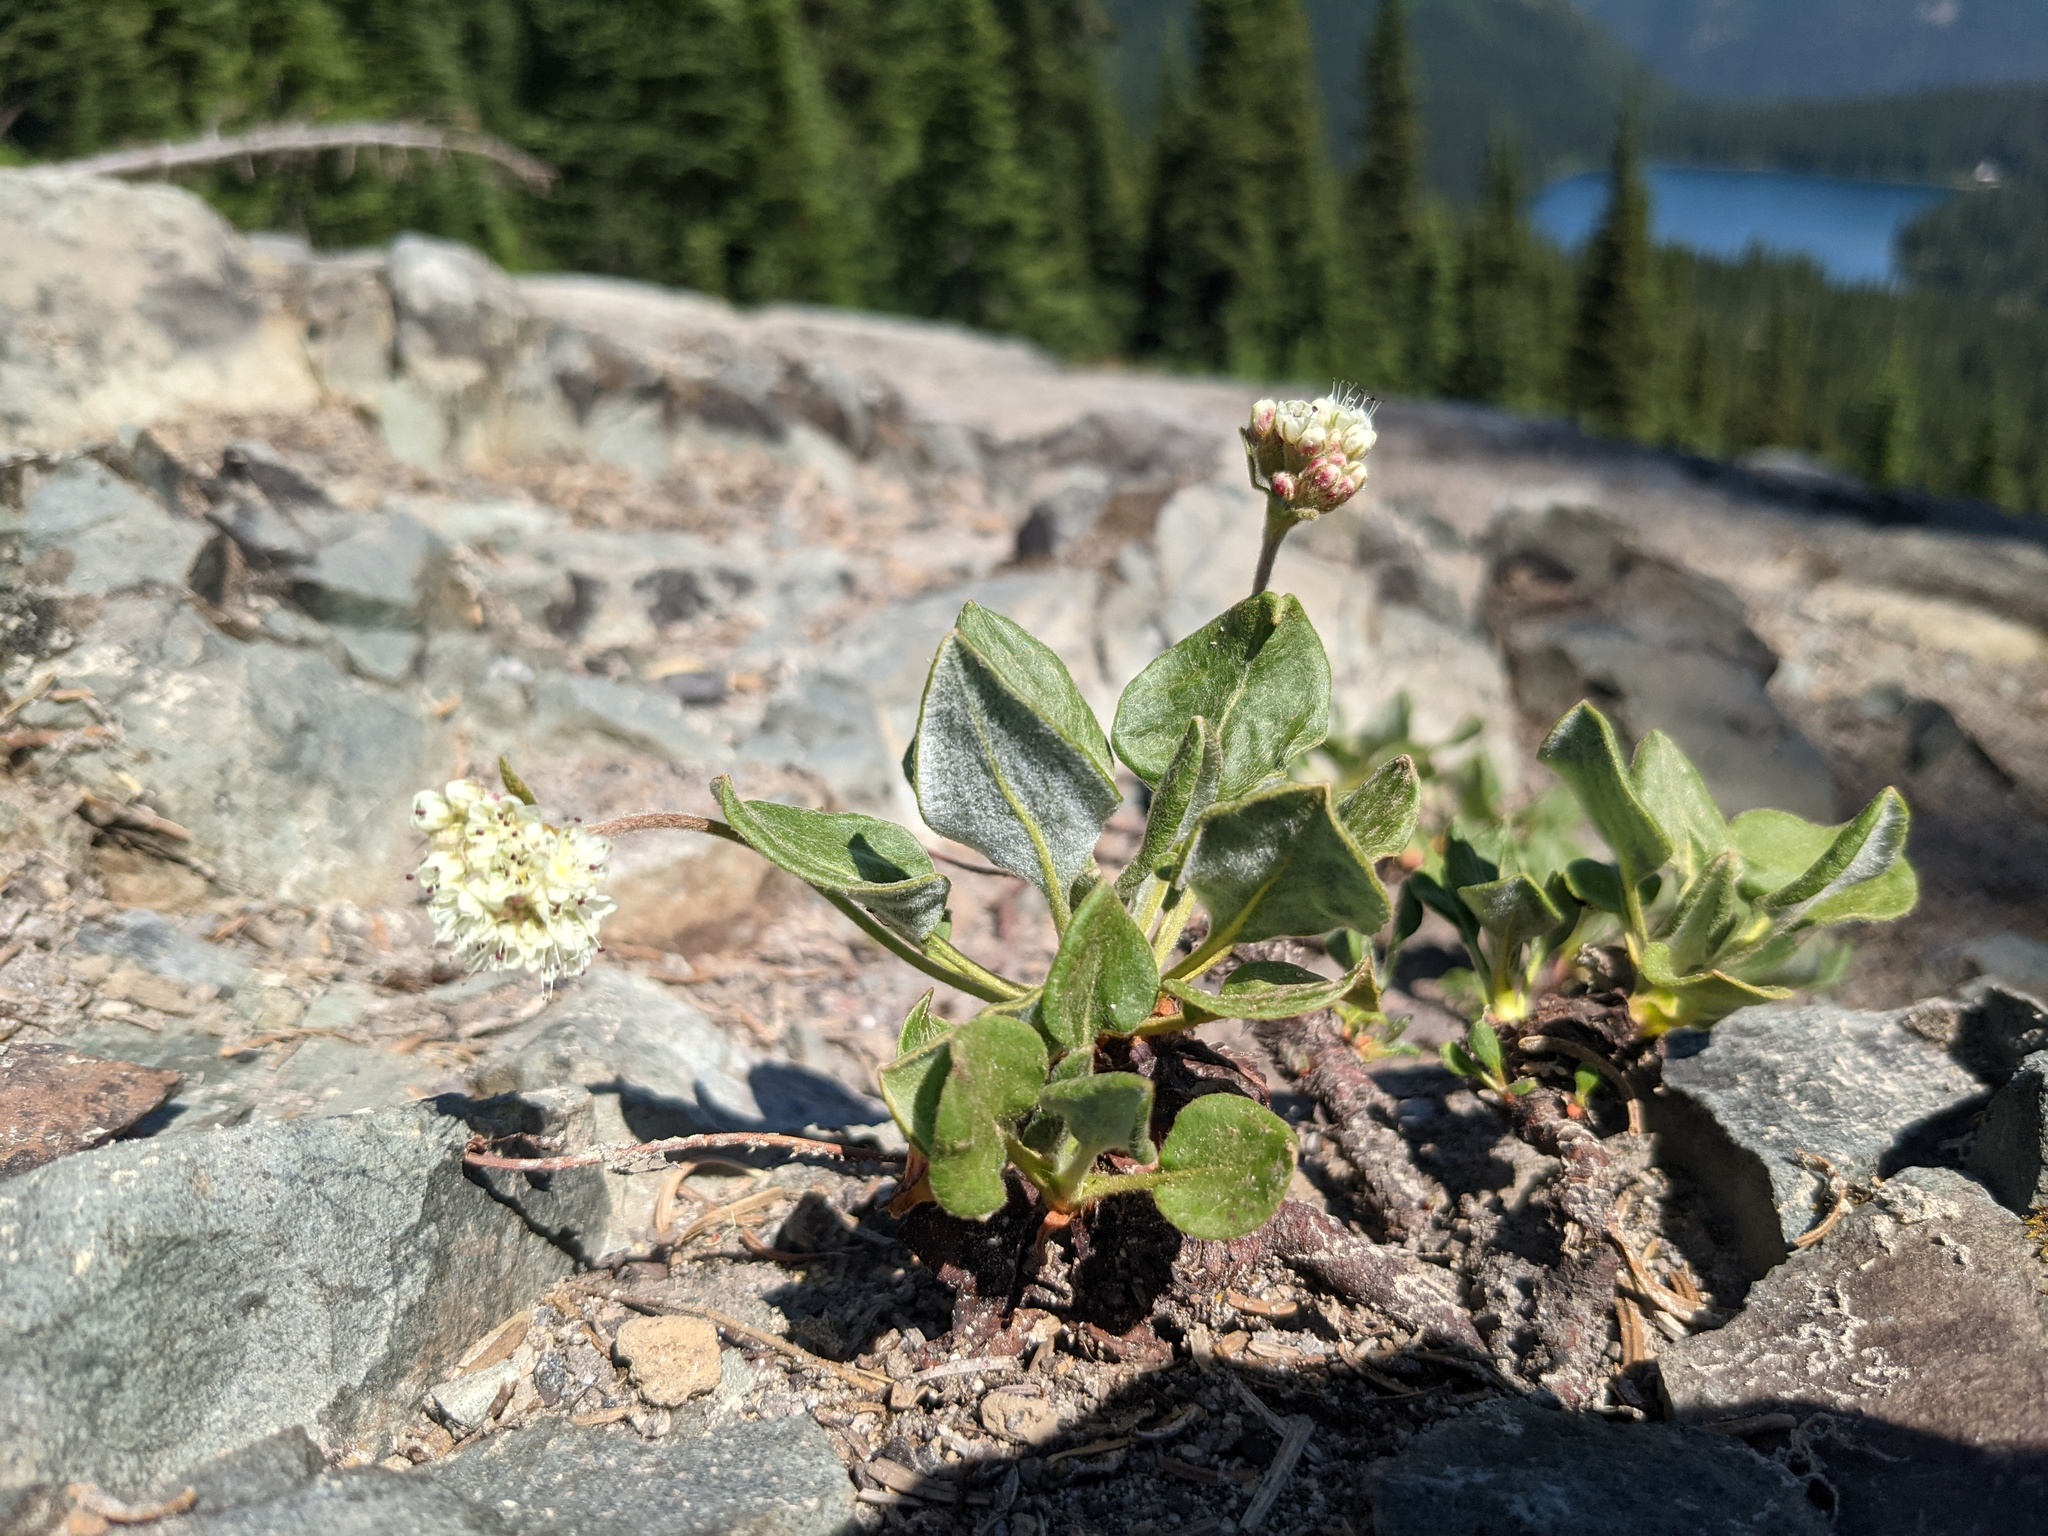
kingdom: Plantae
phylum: Tracheophyta
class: Magnoliopsida
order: Caryophyllales
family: Polygonaceae
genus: Eriogonum
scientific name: Eriogonum pyrolifolium
